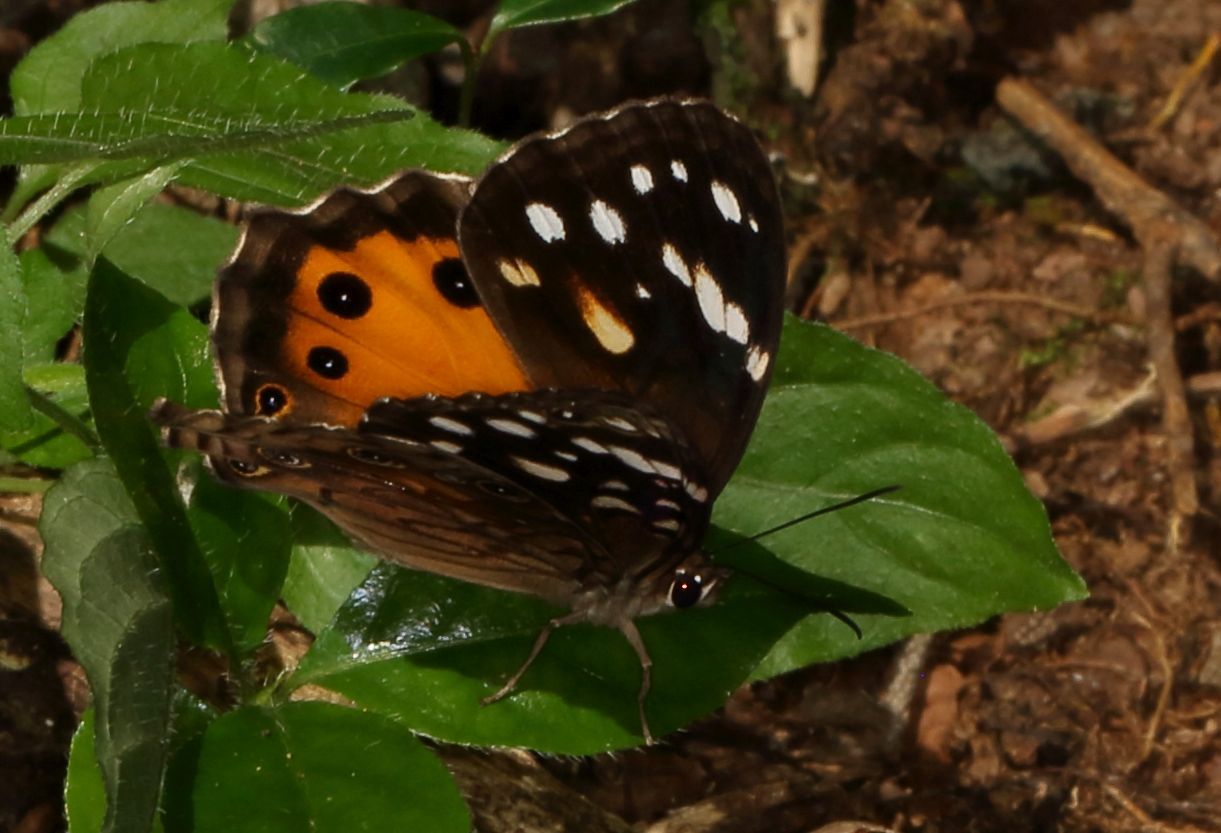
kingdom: Animalia
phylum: Arthropoda
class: Insecta
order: Lepidoptera
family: Nymphalidae
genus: Paralethe
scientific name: Paralethe dendrophilus
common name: Bush beauty
